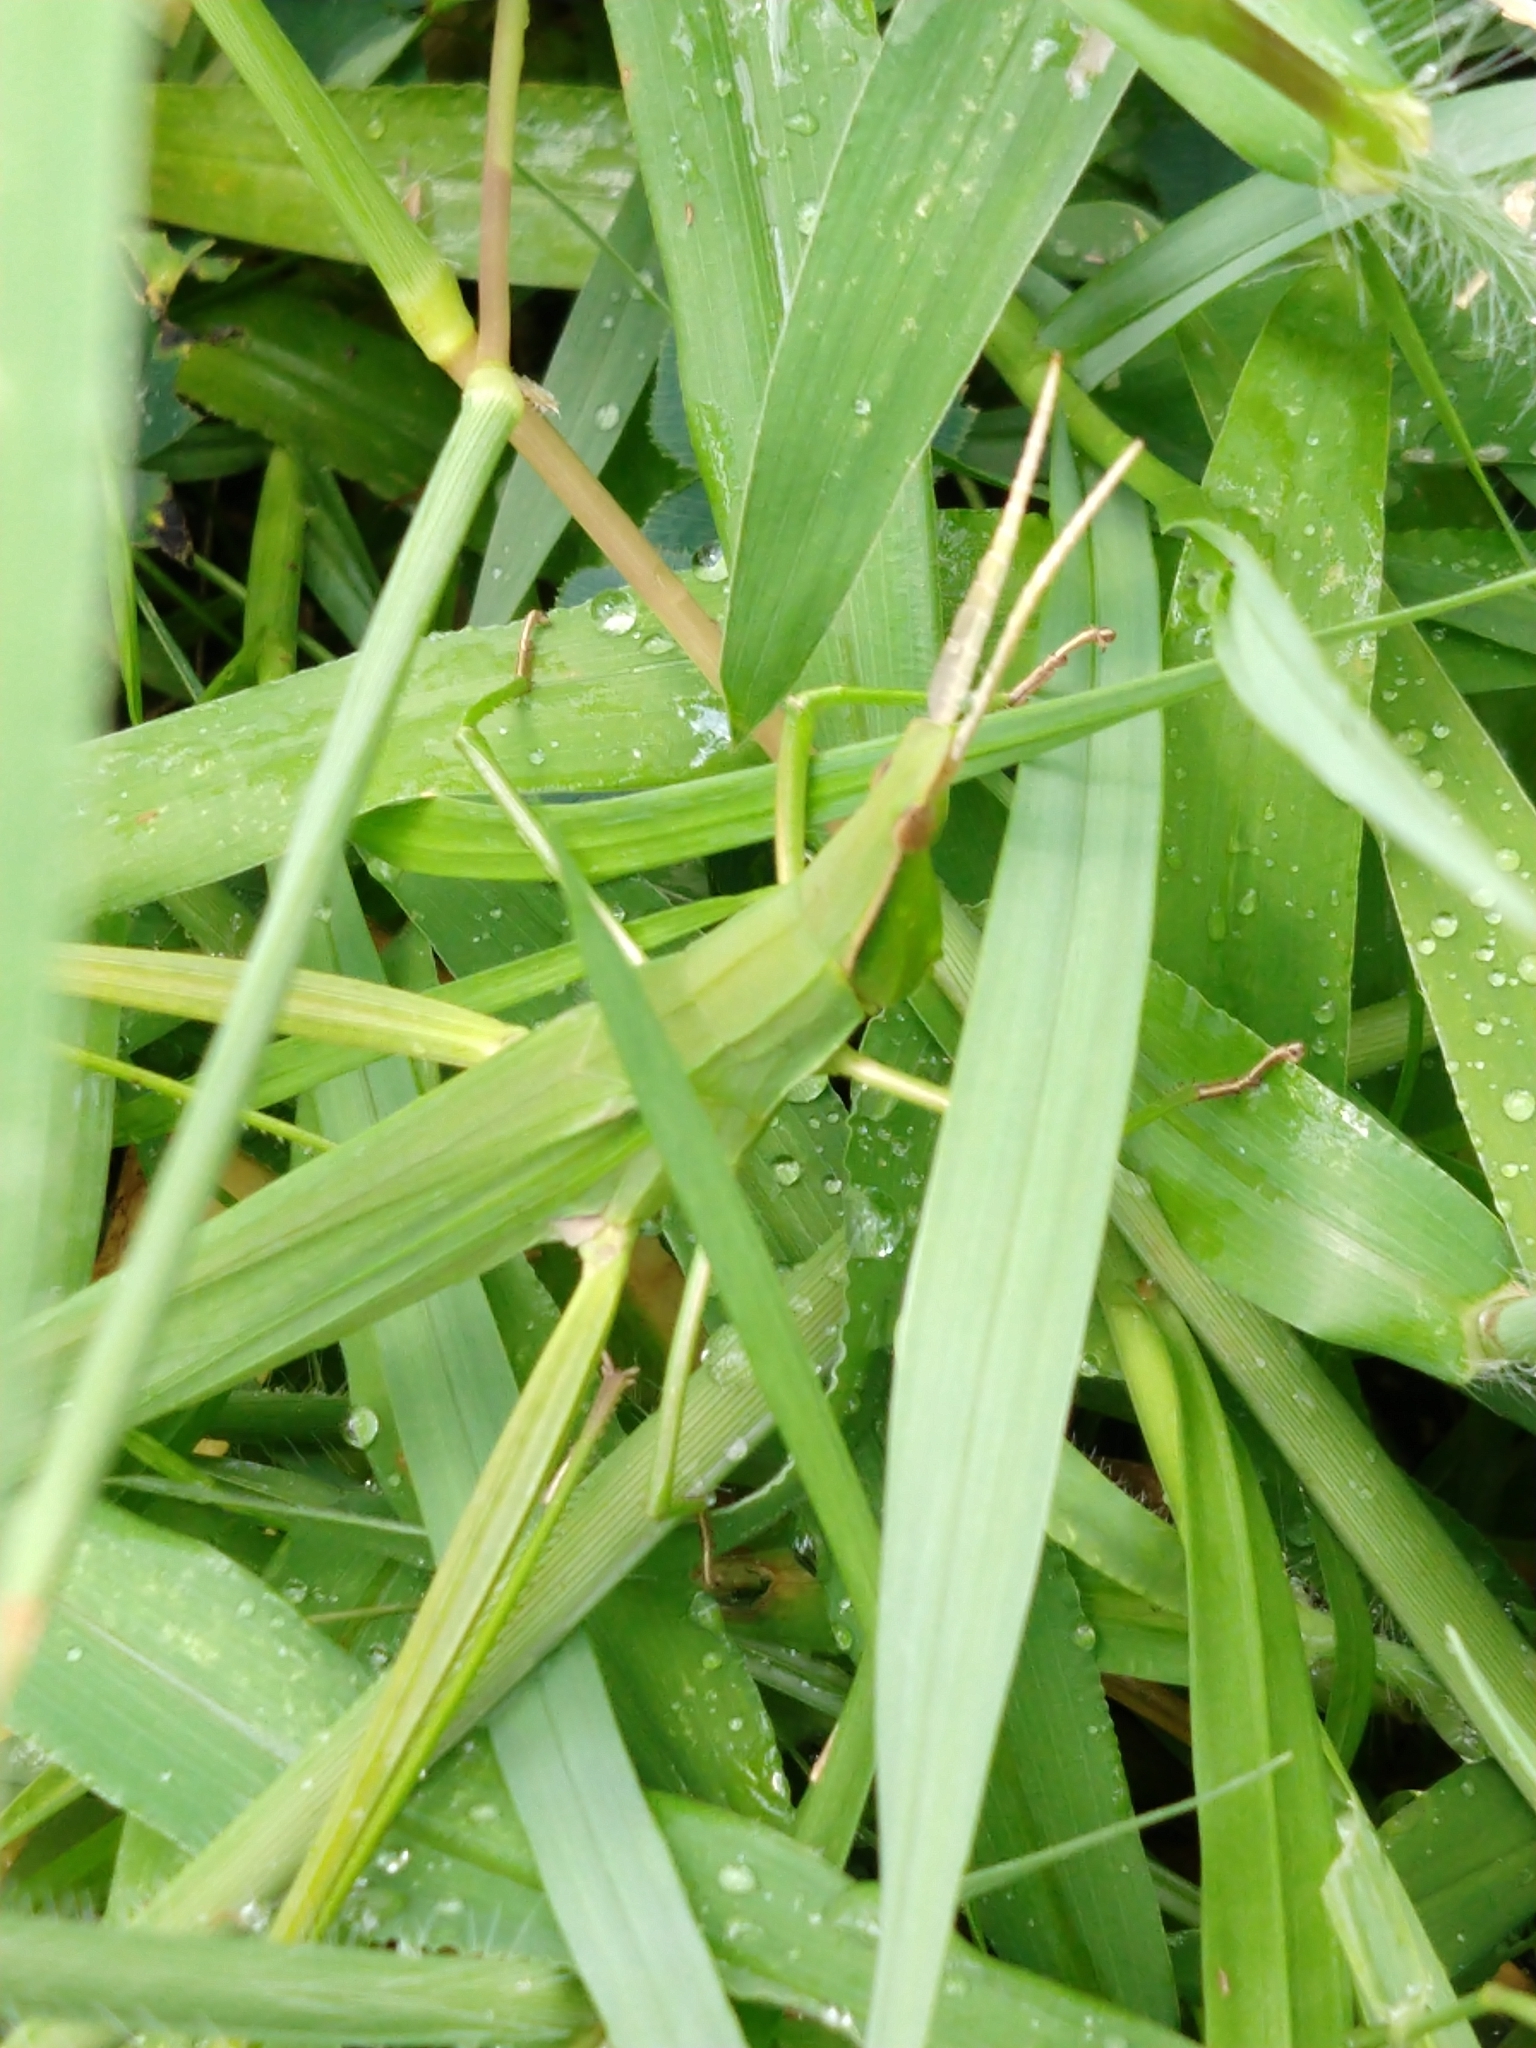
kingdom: Animalia
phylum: Arthropoda
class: Insecta
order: Orthoptera
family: Acrididae
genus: Acrida
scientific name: Acrida cinerea
